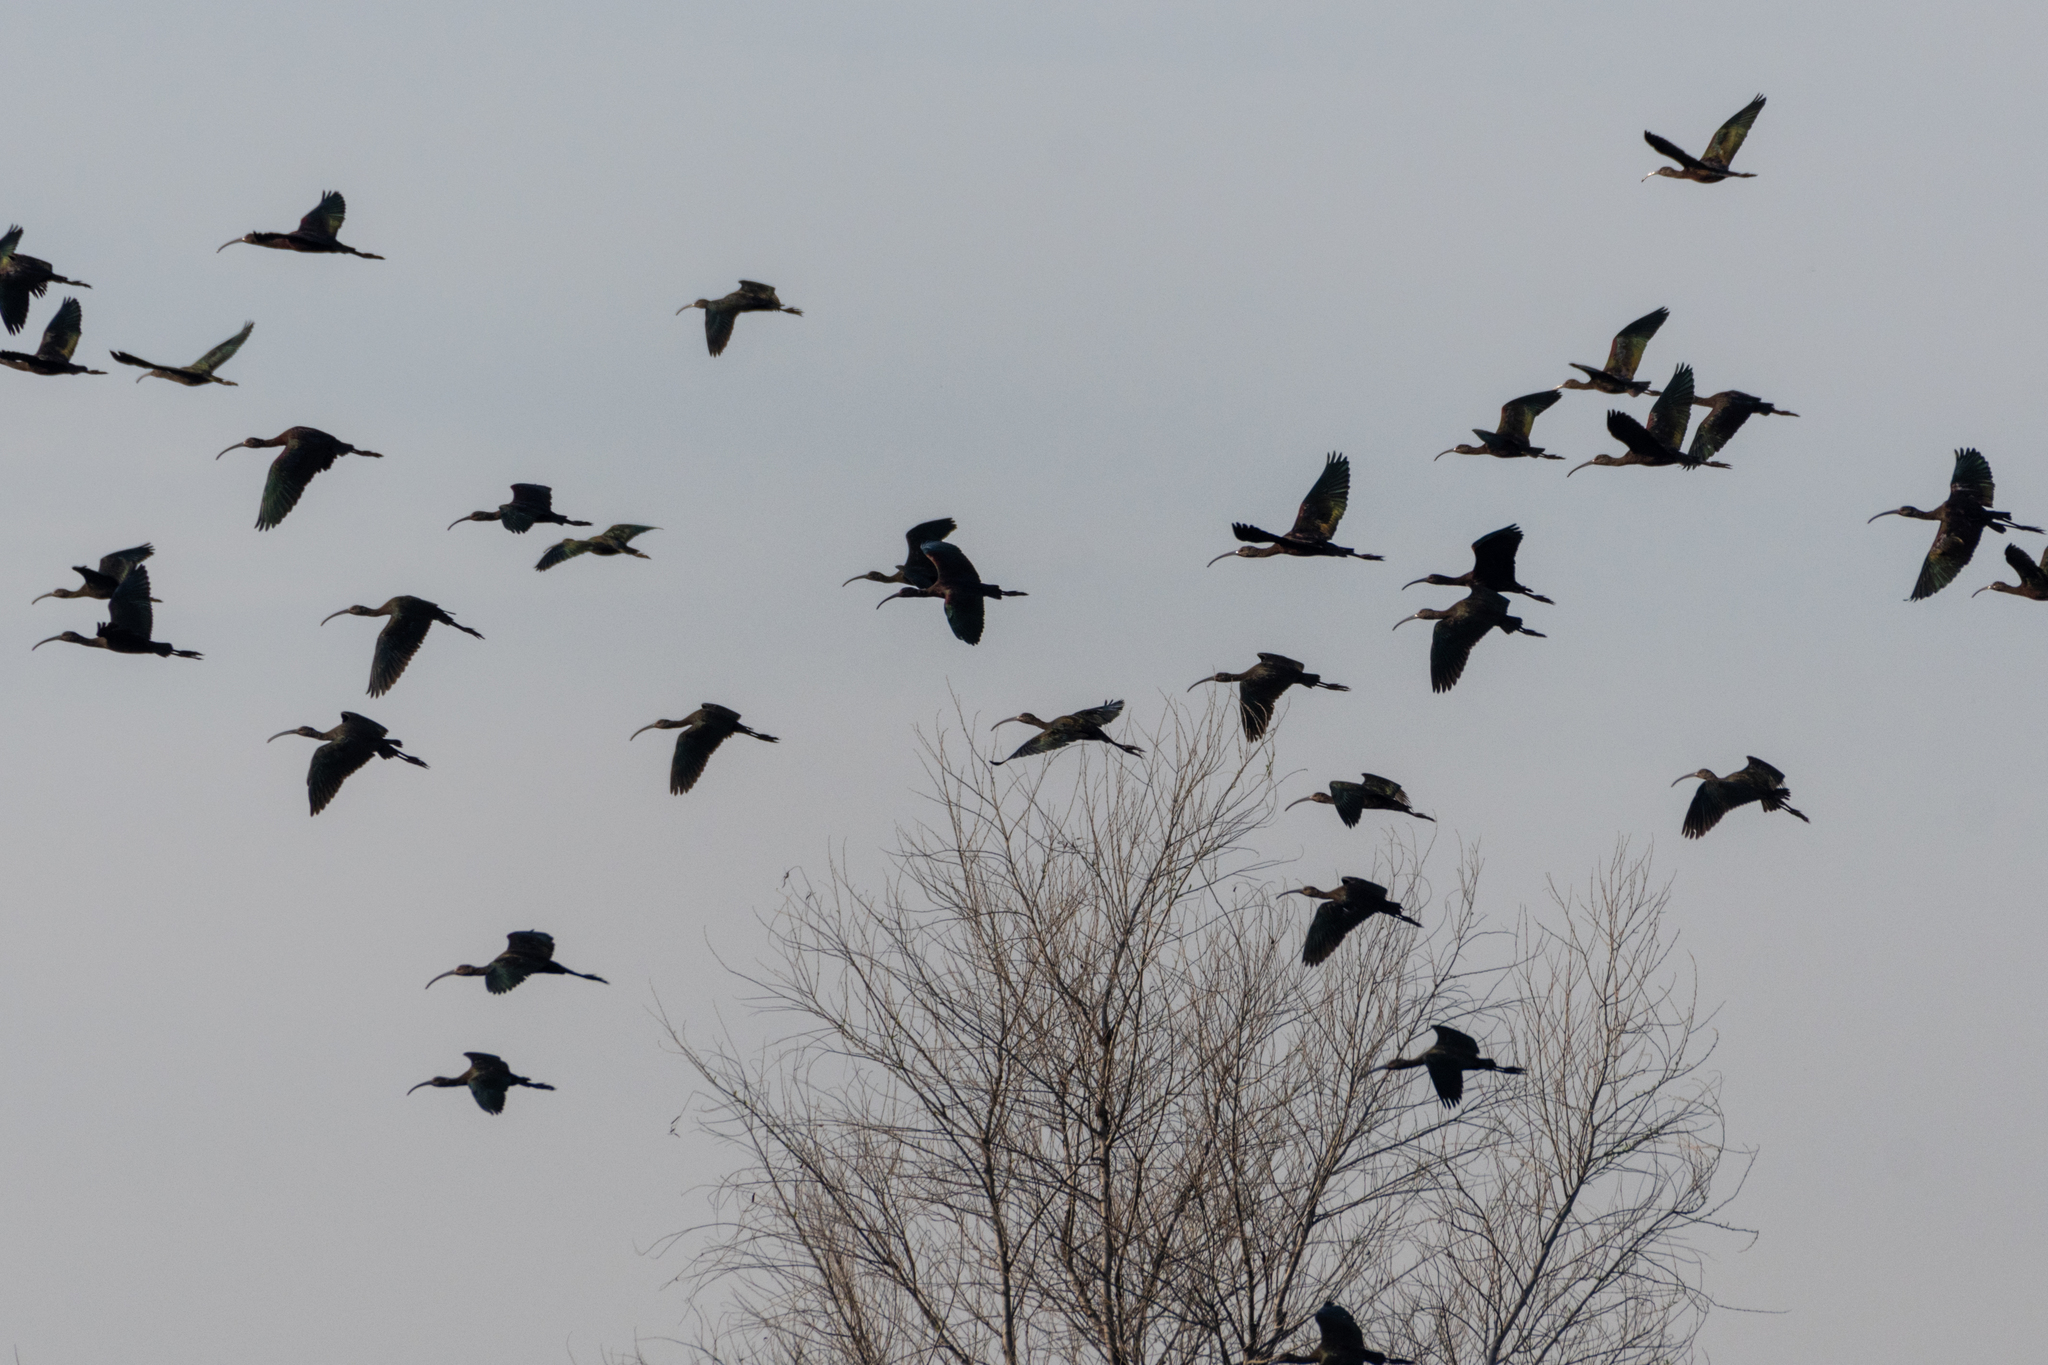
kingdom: Animalia
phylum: Chordata
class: Aves
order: Pelecaniformes
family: Threskiornithidae
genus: Plegadis
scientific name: Plegadis chihi
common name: White-faced ibis
